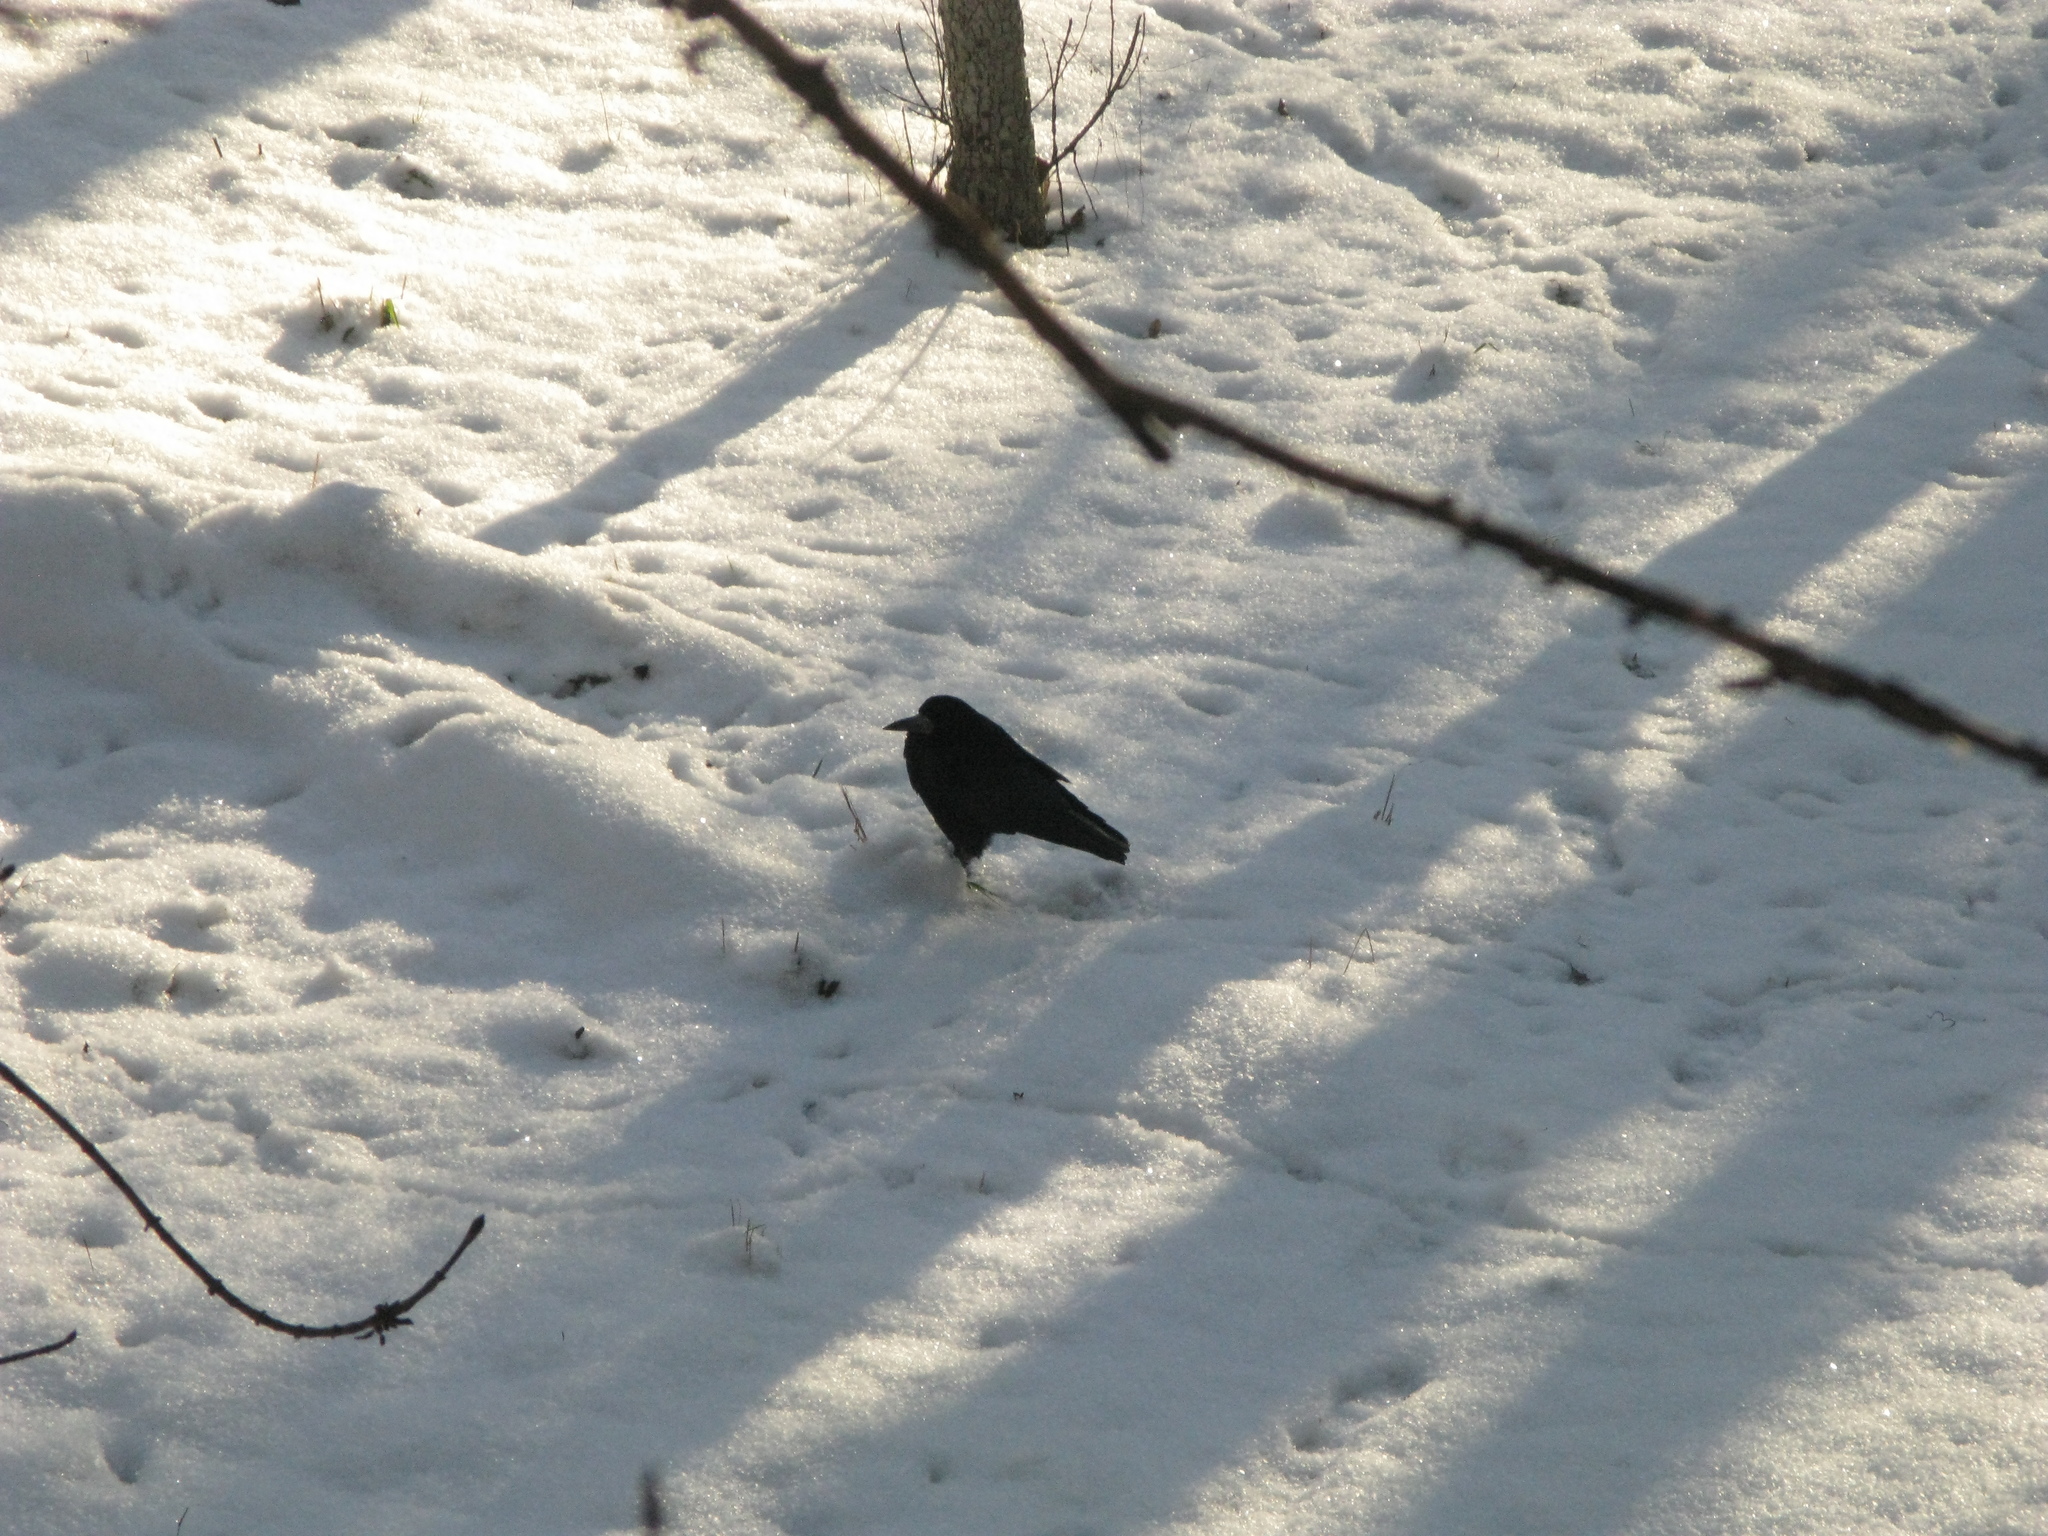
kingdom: Animalia
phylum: Chordata
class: Aves
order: Passeriformes
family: Corvidae
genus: Corvus
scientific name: Corvus frugilegus
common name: Rook
